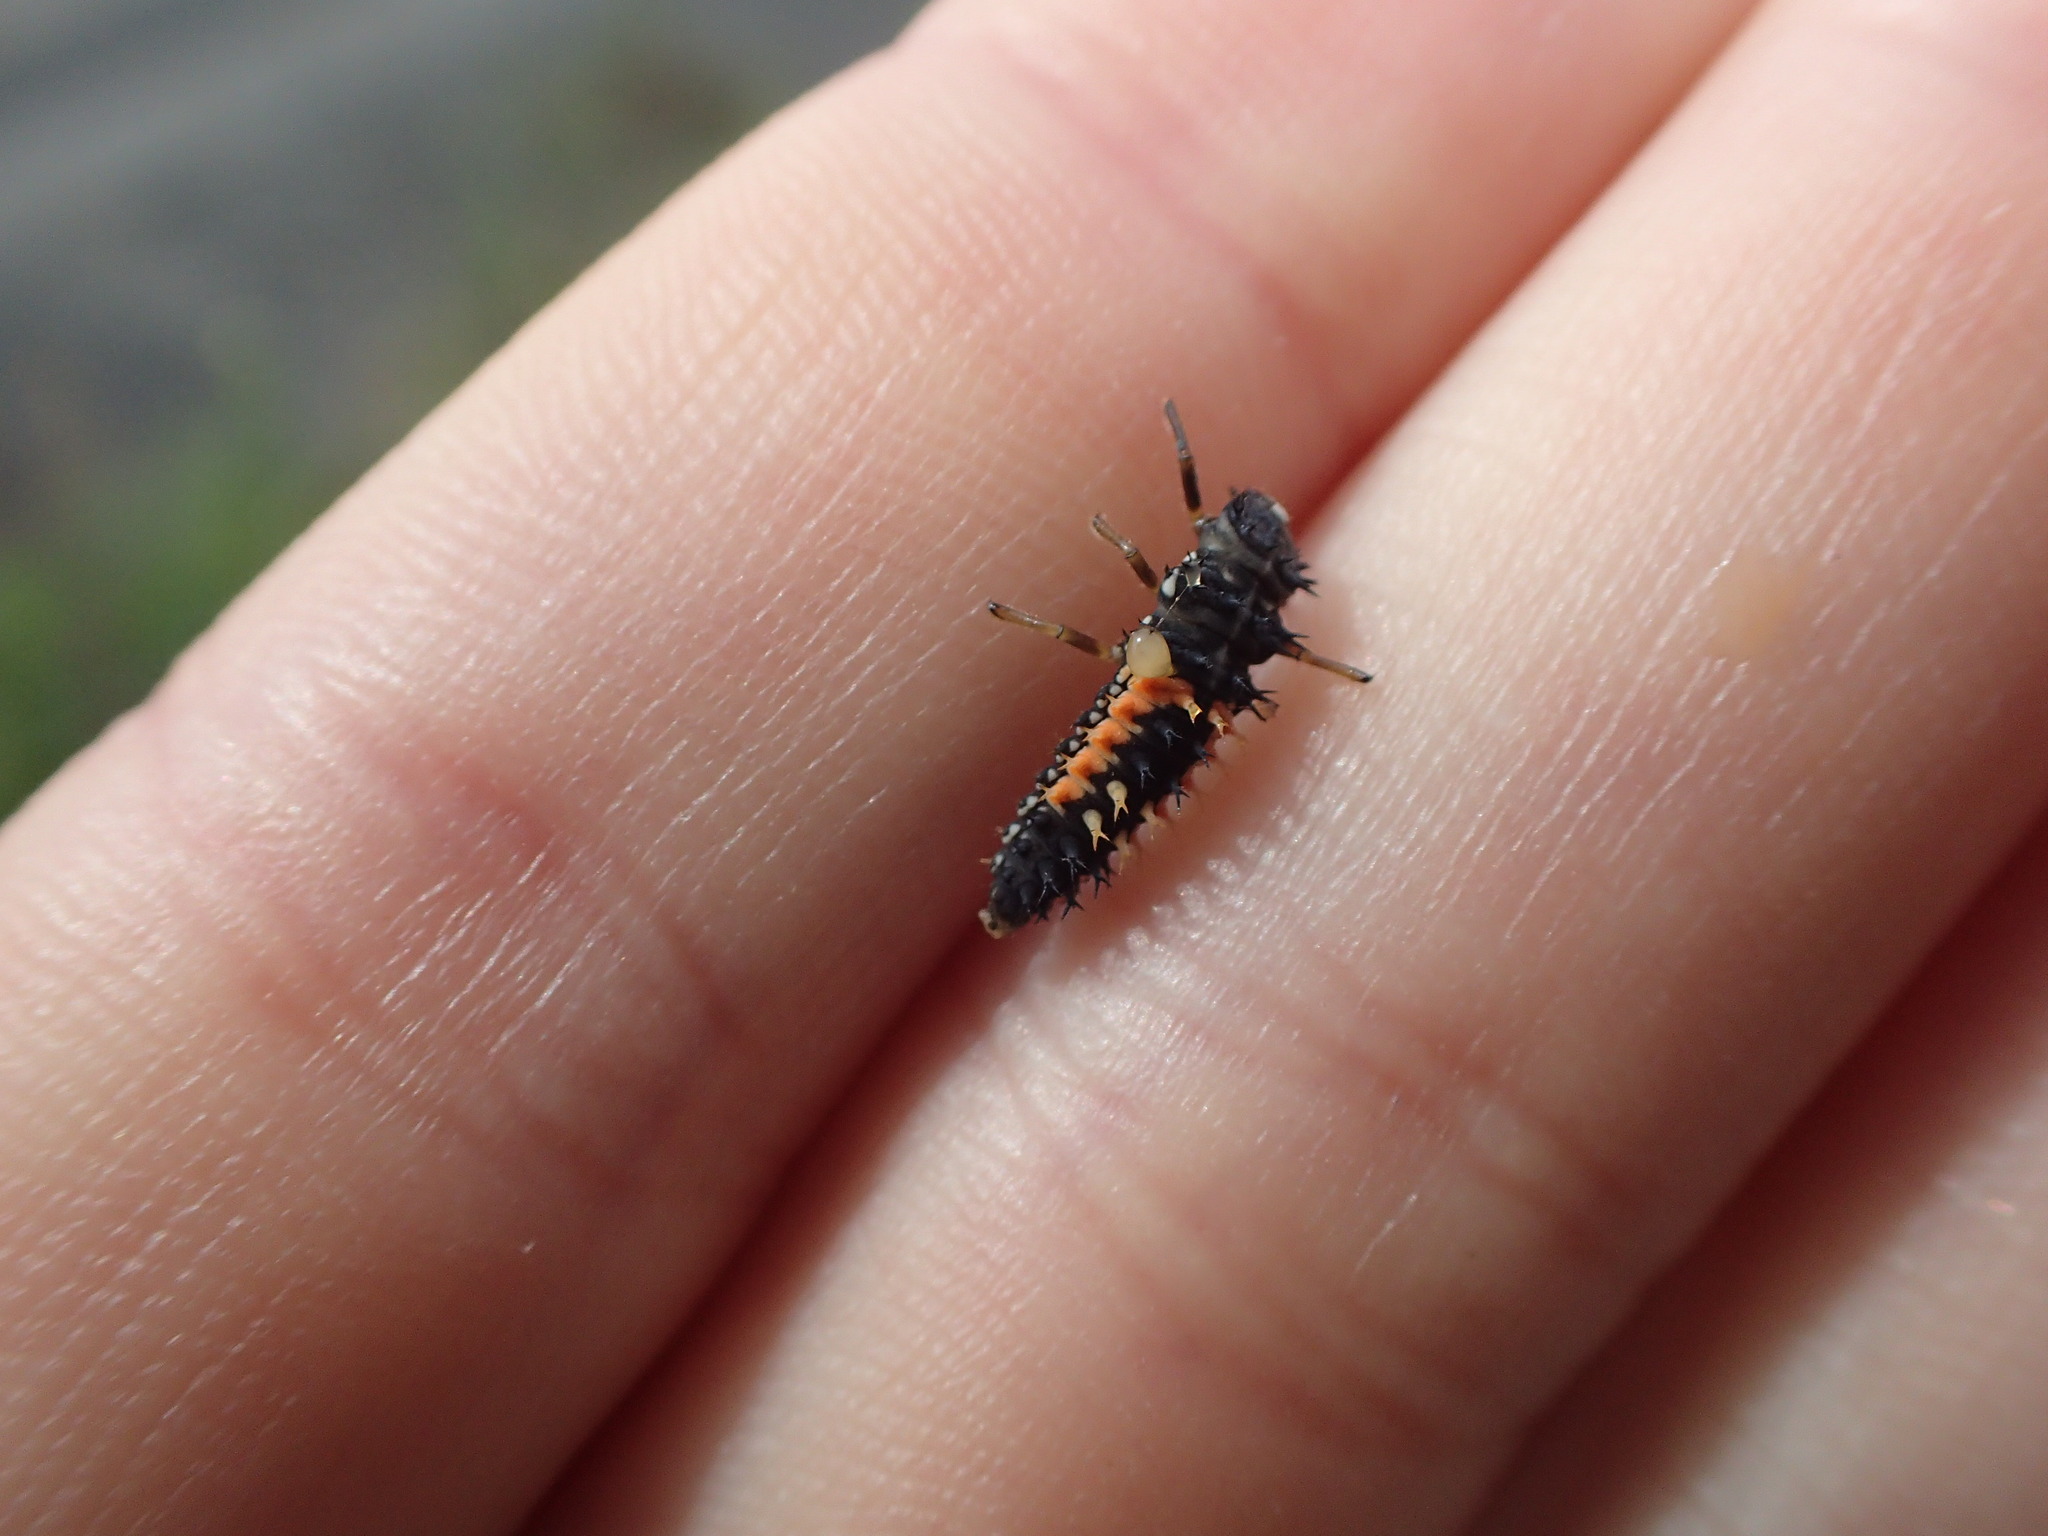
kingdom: Animalia
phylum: Arthropoda
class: Insecta
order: Coleoptera
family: Coccinellidae
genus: Harmonia
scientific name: Harmonia axyridis
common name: Harlequin ladybird
